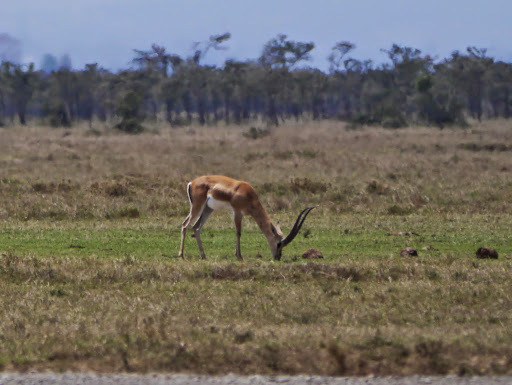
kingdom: Animalia
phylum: Chordata
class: Mammalia
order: Artiodactyla
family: Bovidae
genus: Nanger
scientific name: Nanger granti
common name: Grant's gazelle
